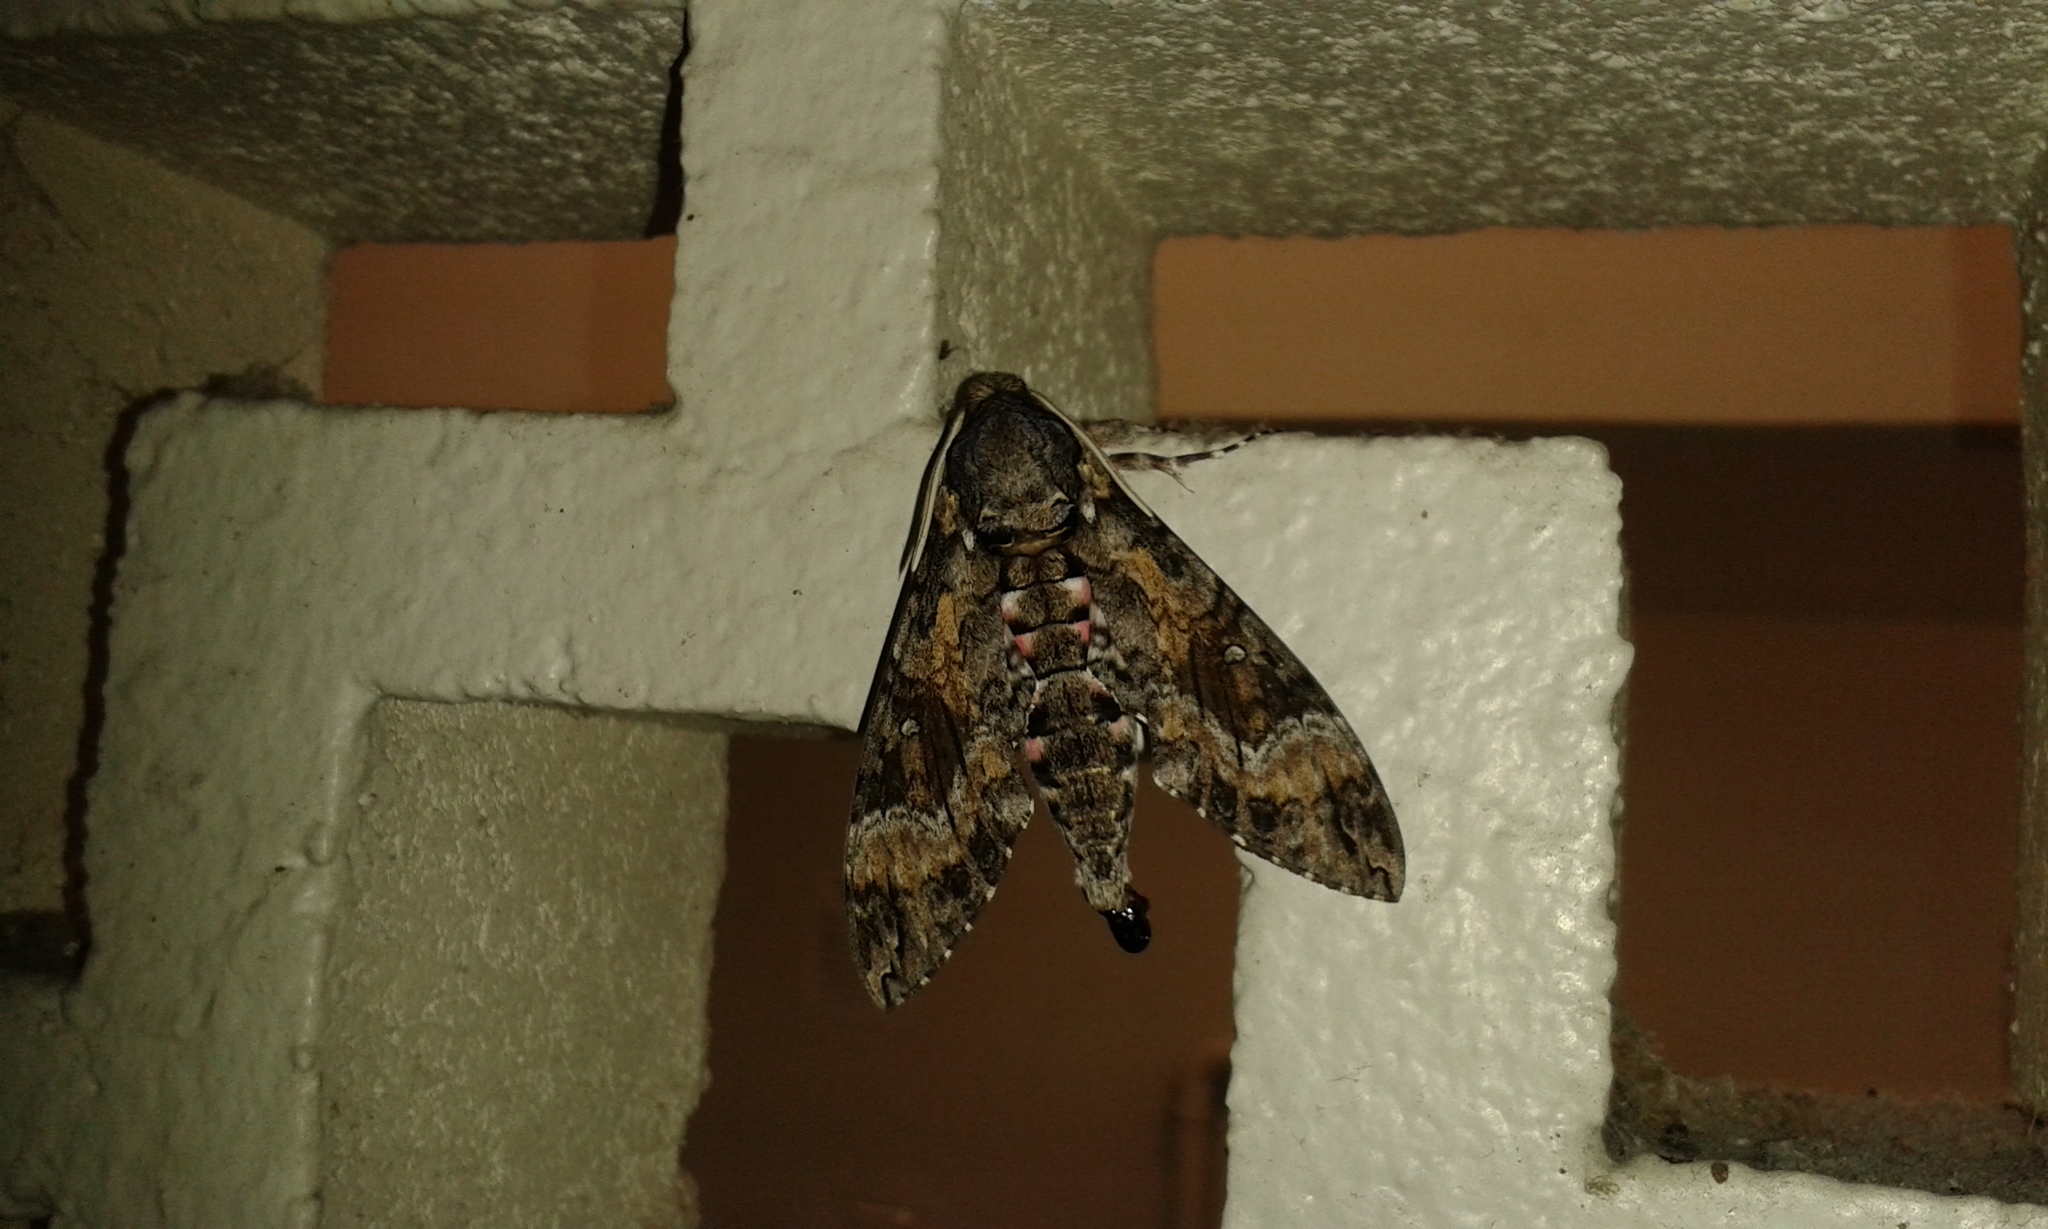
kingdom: Animalia
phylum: Arthropoda
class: Insecta
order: Lepidoptera
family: Sphingidae
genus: Agrius
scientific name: Agrius cingulata
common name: Pink-spotted hawkmoth
